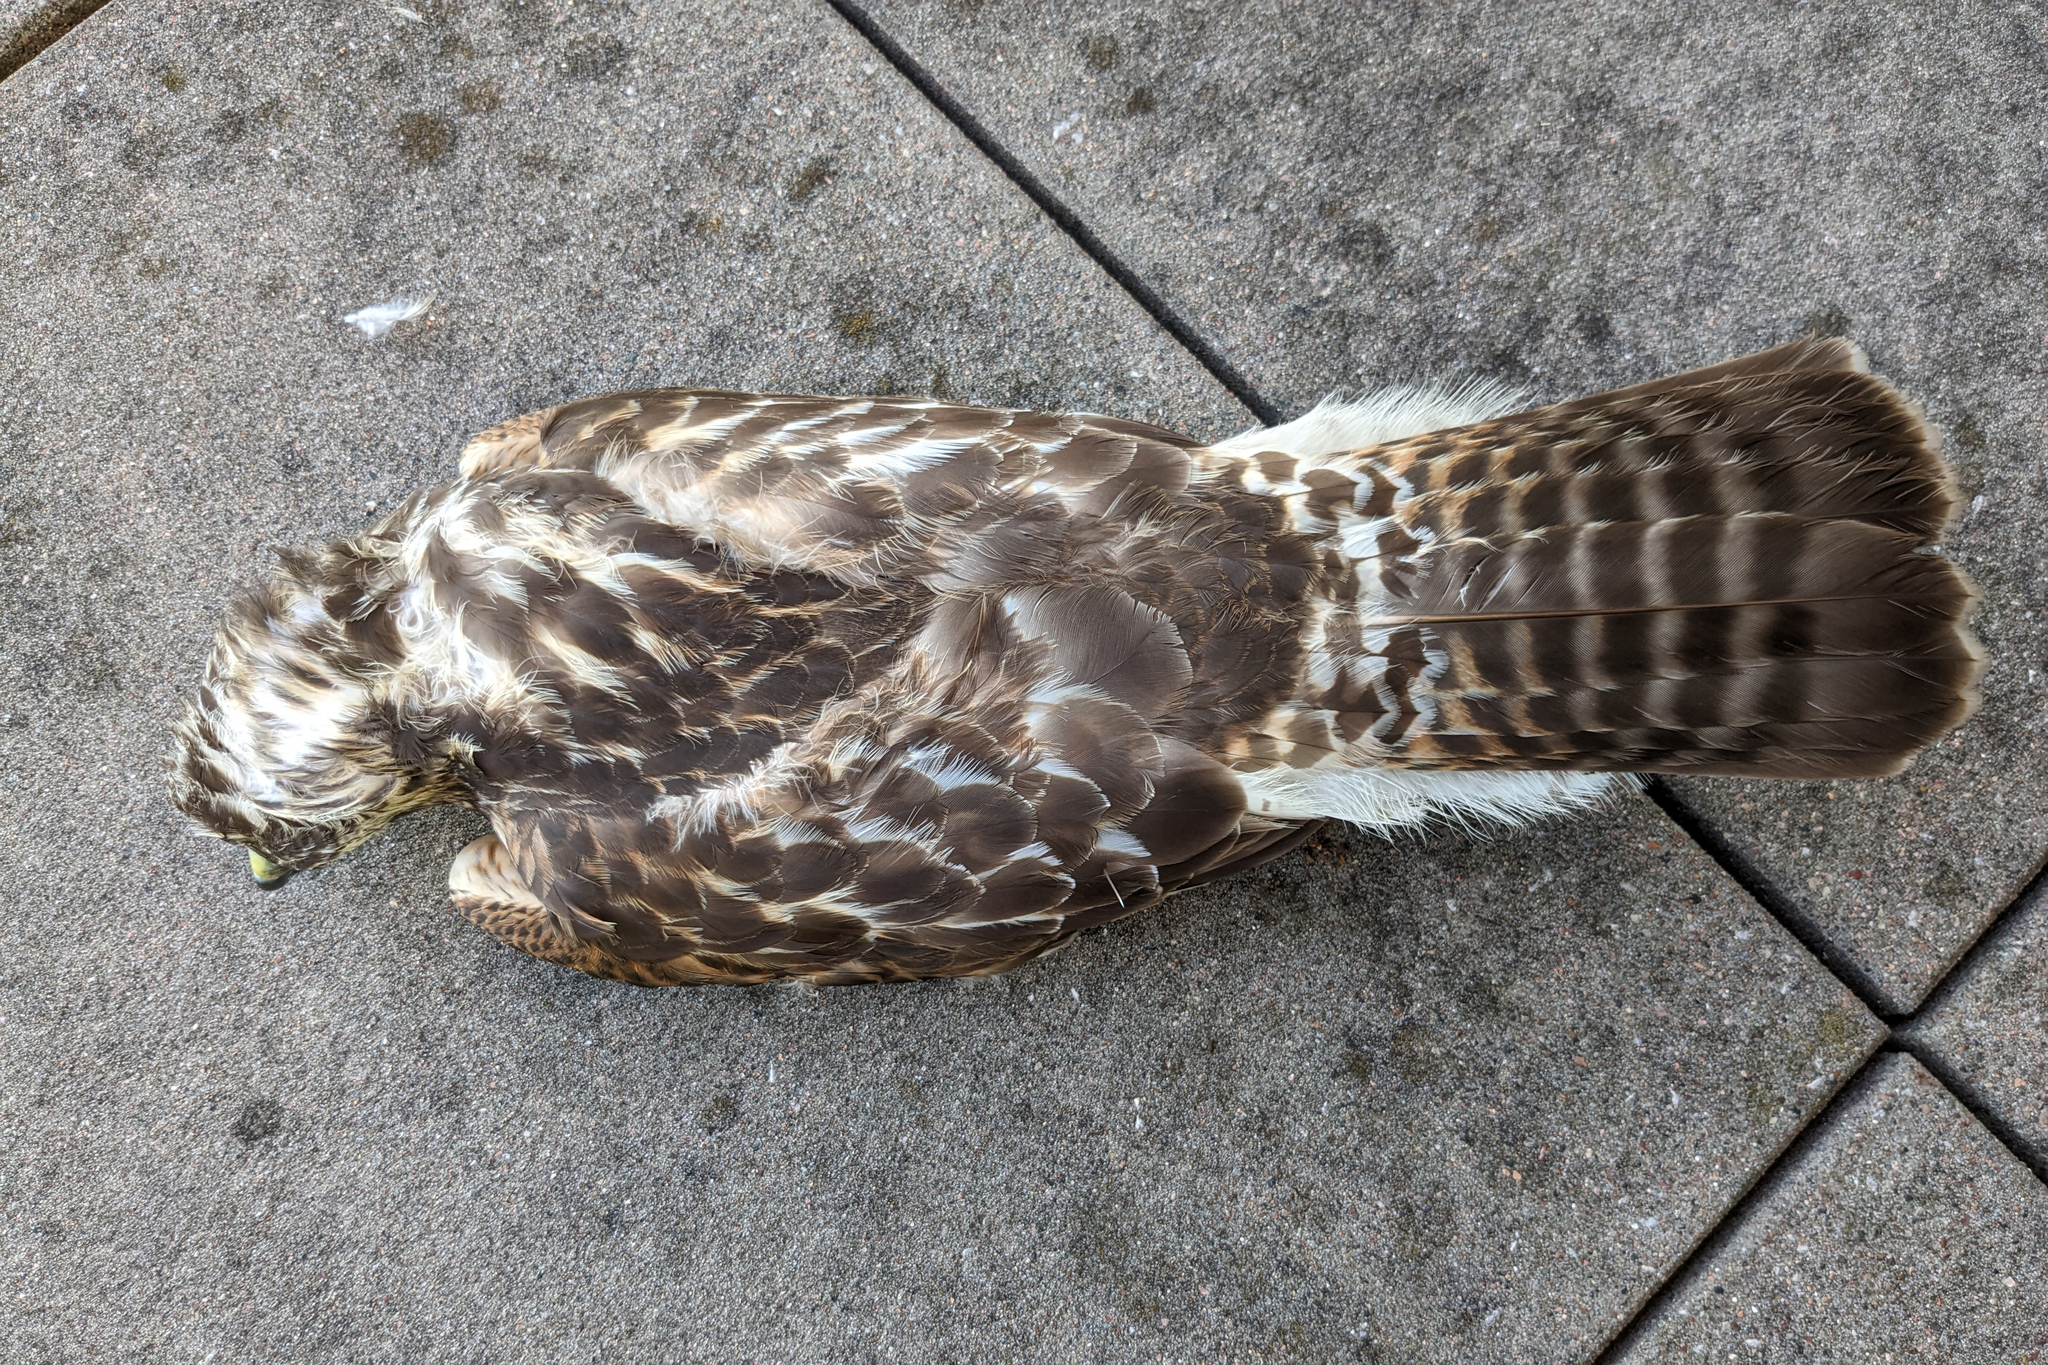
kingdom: Animalia
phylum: Chordata
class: Aves
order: Accipitriformes
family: Accipitridae
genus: Buteo
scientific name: Buteo lineatus
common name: Red-shouldered hawk
